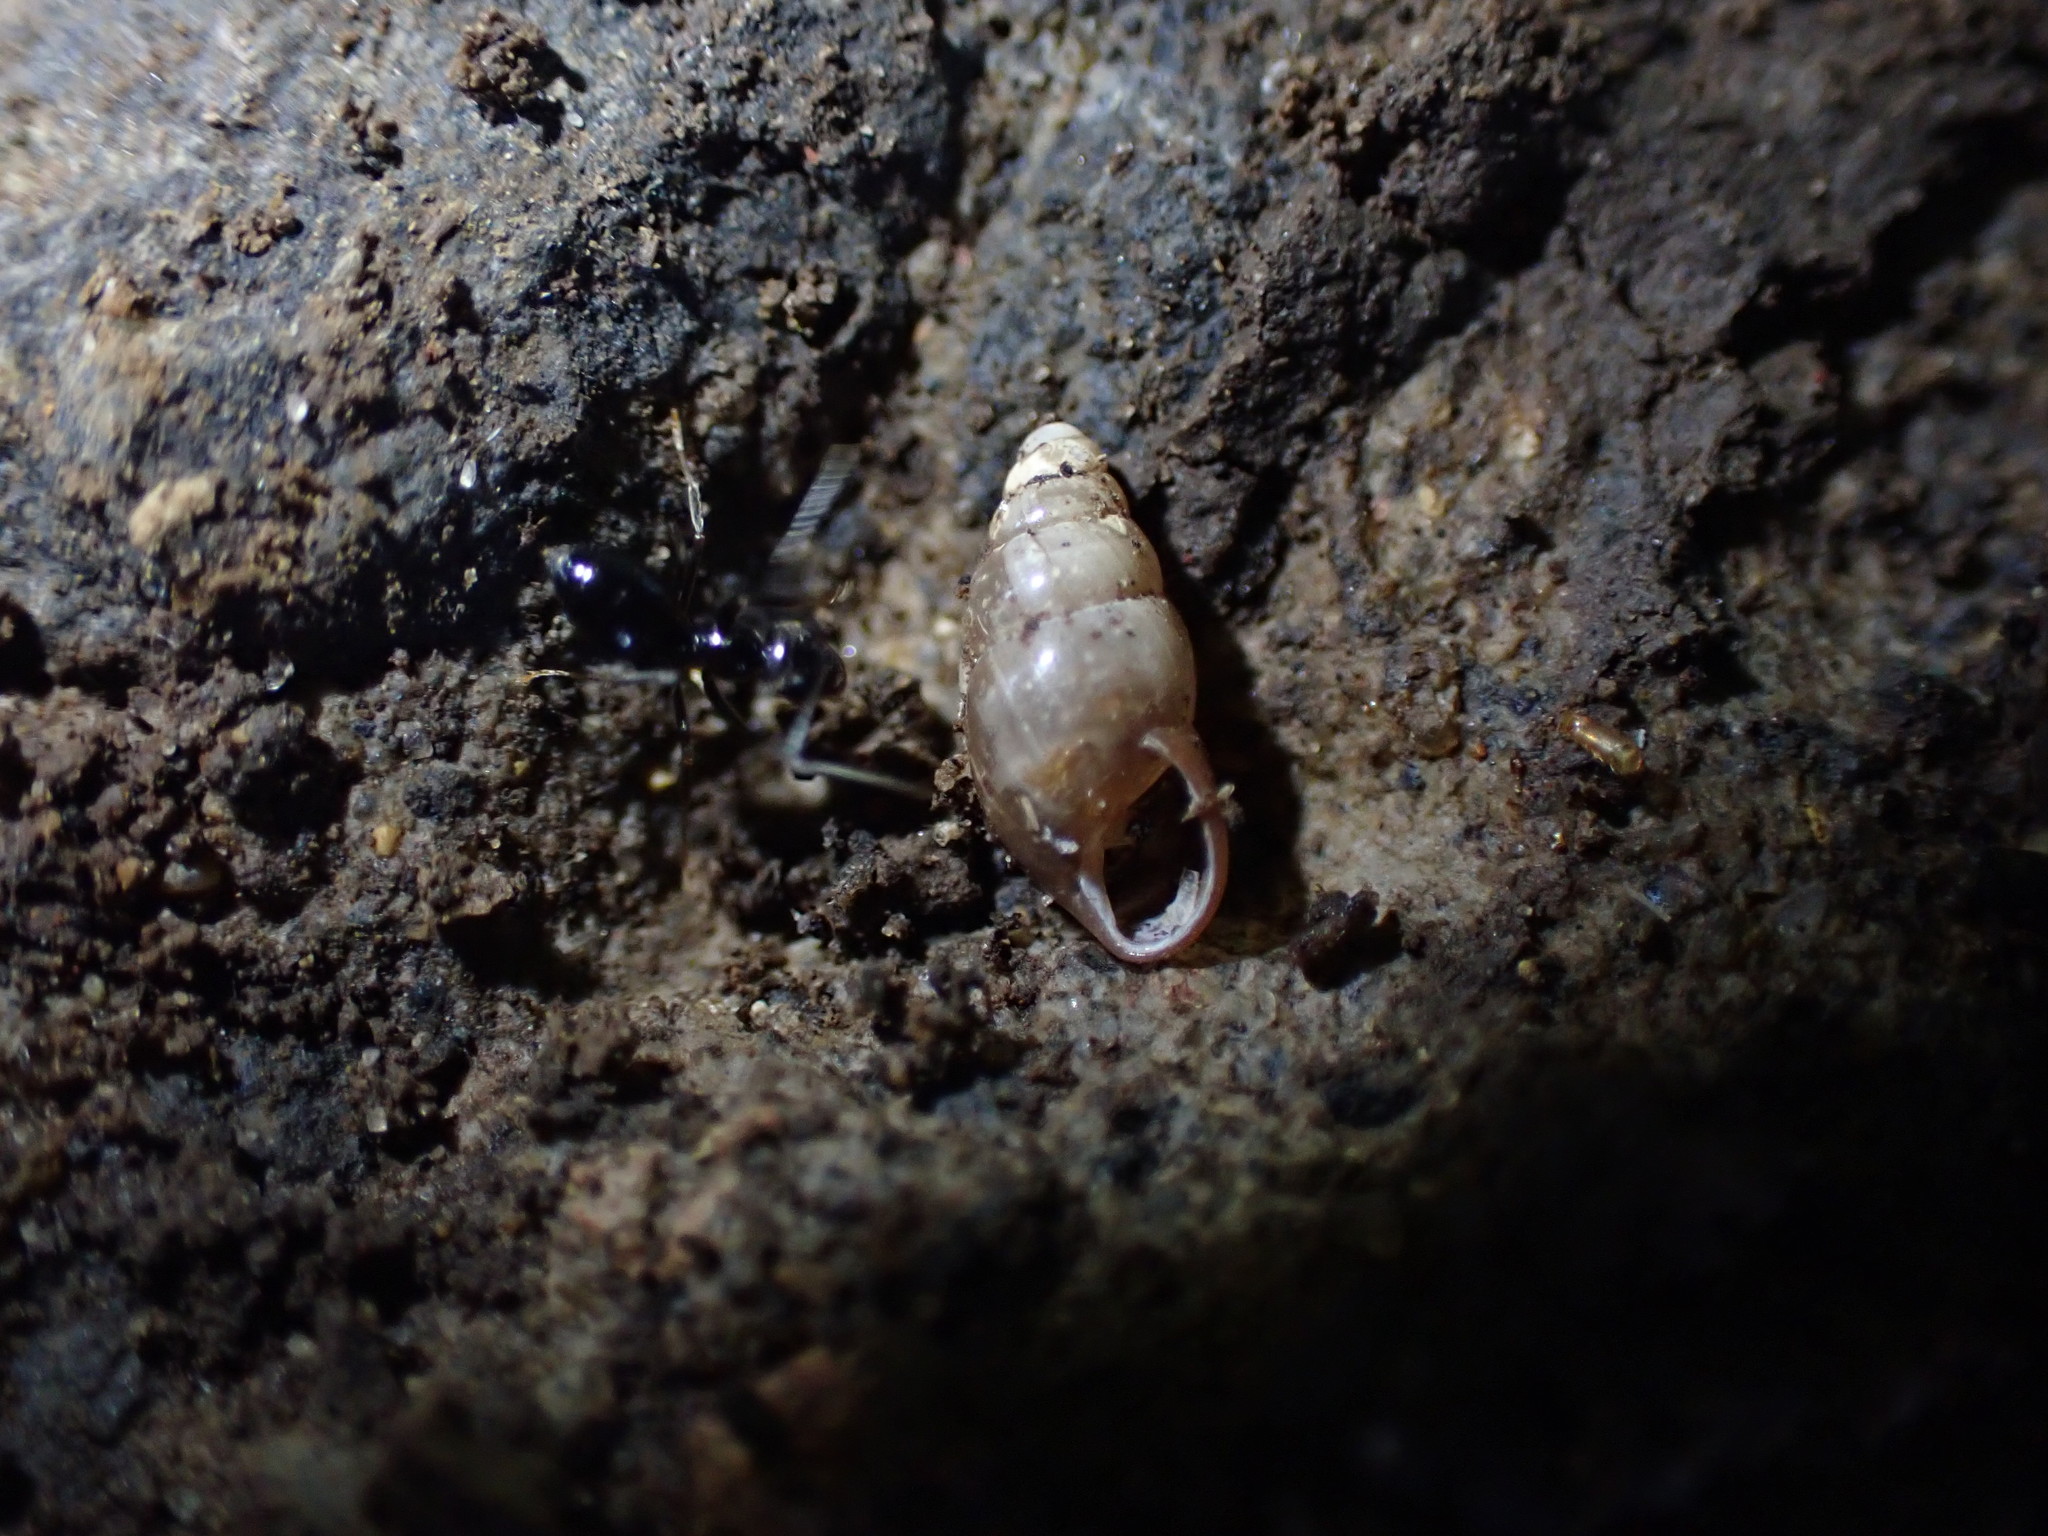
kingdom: Animalia
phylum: Mollusca
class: Gastropoda
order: Stylommatophora
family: Cochlicopidae
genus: Cochlicopa
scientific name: Cochlicopa lubrica
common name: Glossy pillar snail
